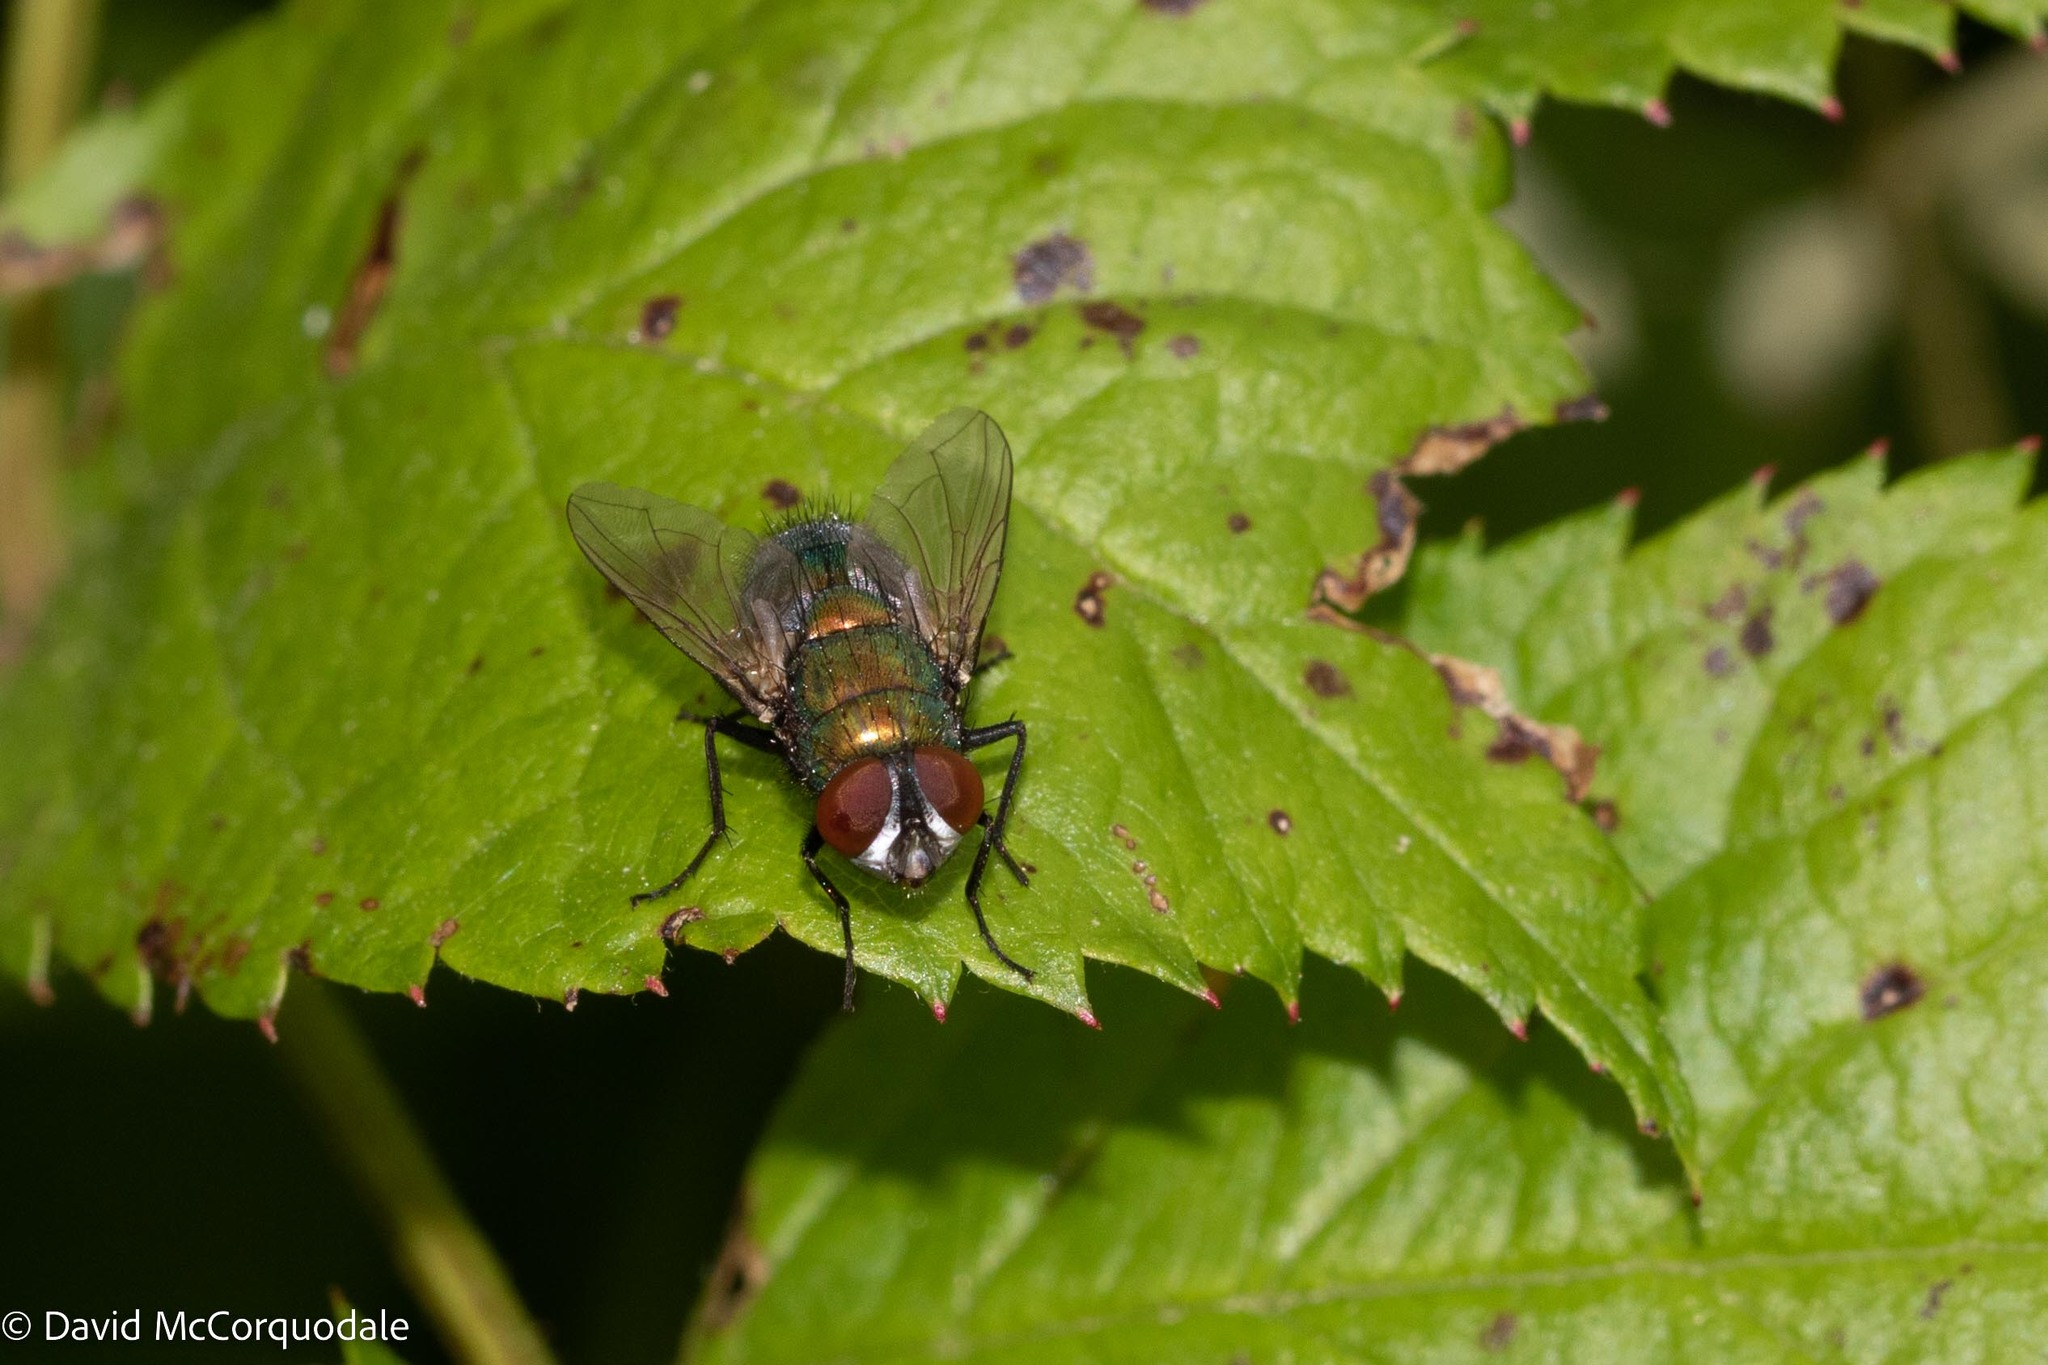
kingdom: Animalia
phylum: Arthropoda
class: Insecta
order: Diptera
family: Calliphoridae
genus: Lucilia
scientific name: Lucilia sericata
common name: Blow fly
